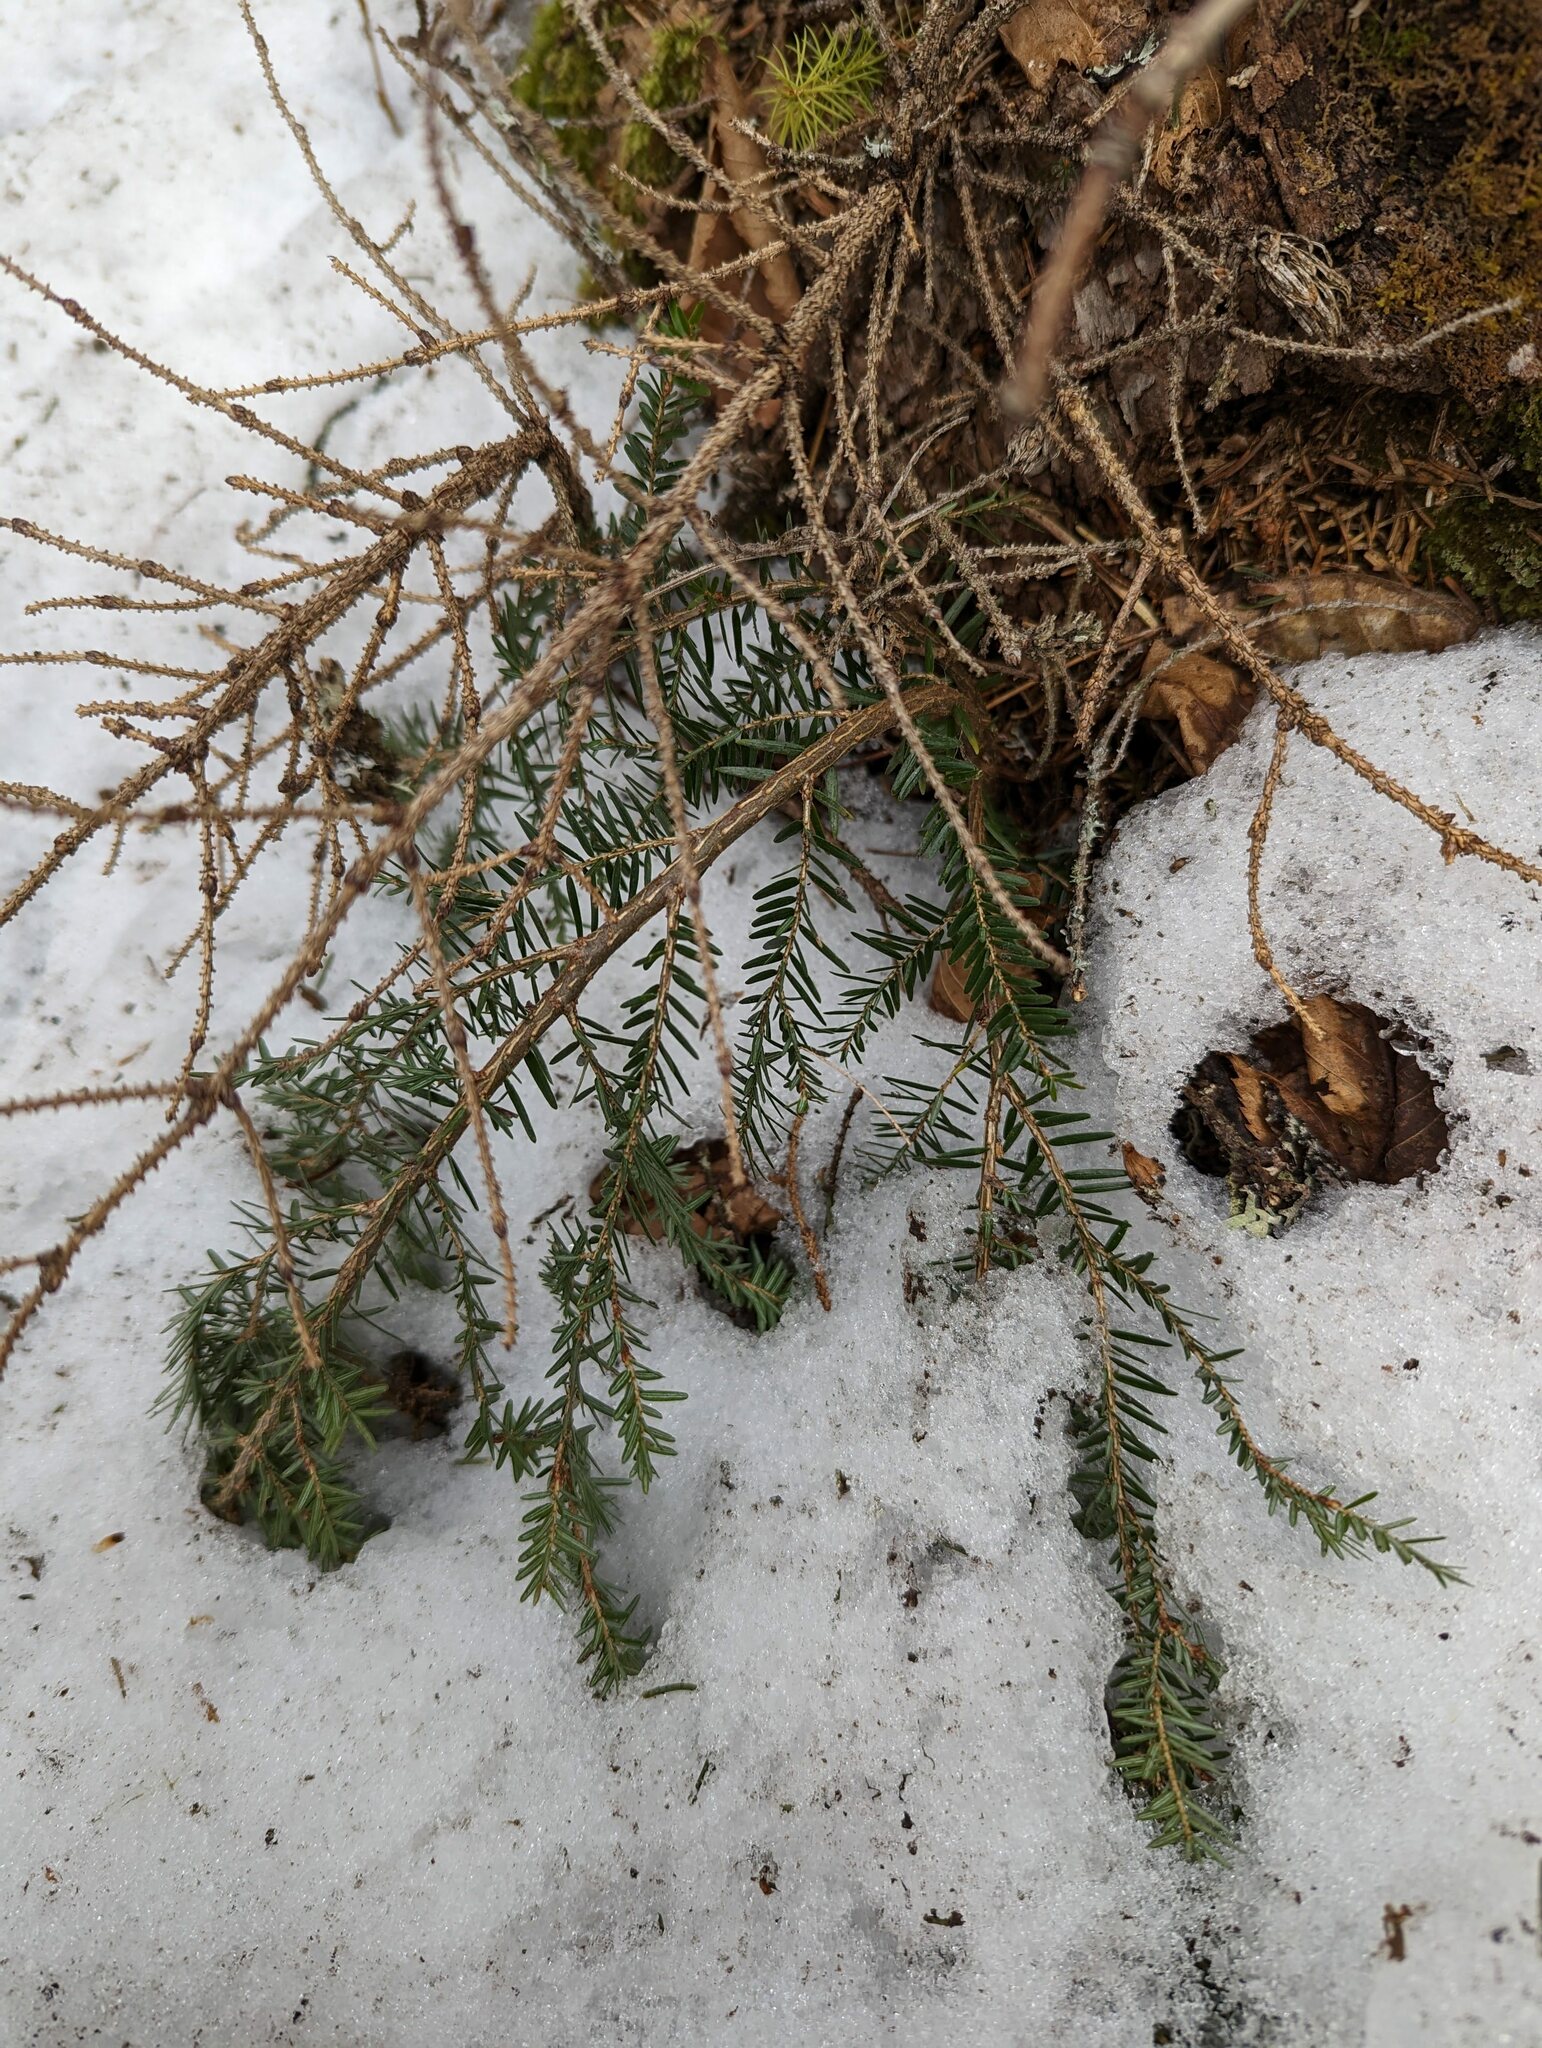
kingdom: Plantae
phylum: Tracheophyta
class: Pinopsida
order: Pinales
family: Pinaceae
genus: Tsuga
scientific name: Tsuga canadensis
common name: Eastern hemlock
